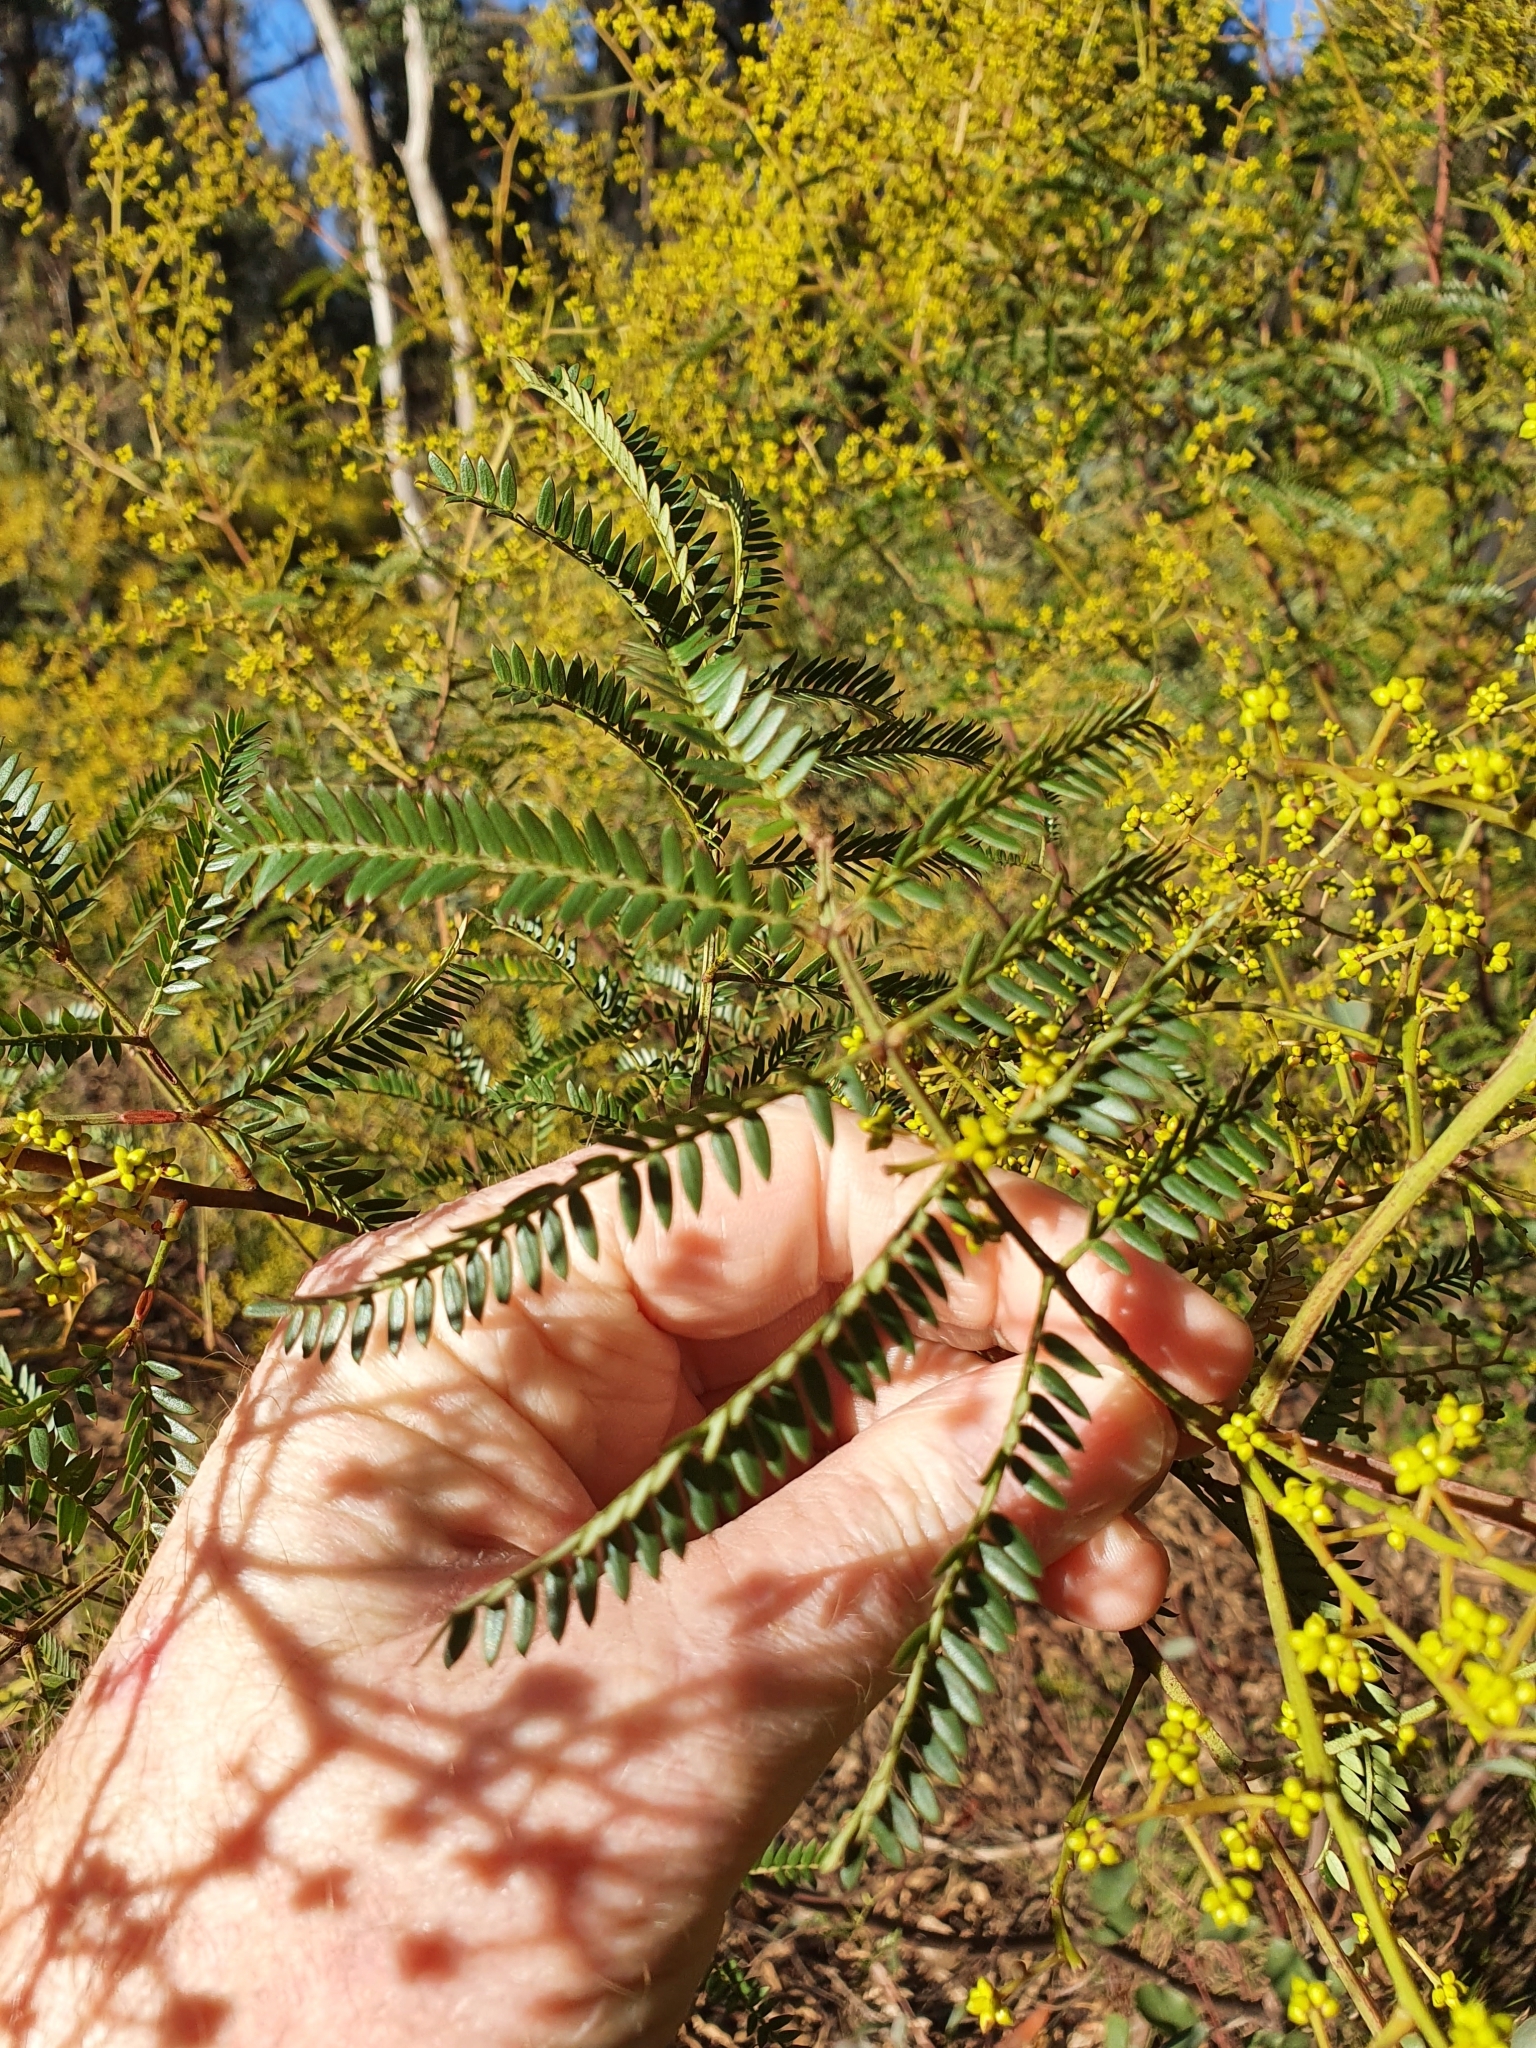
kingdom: Plantae
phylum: Tracheophyta
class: Magnoliopsida
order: Fabales
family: Fabaceae
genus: Acacia
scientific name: Acacia terminalis
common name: Cedar wattle
